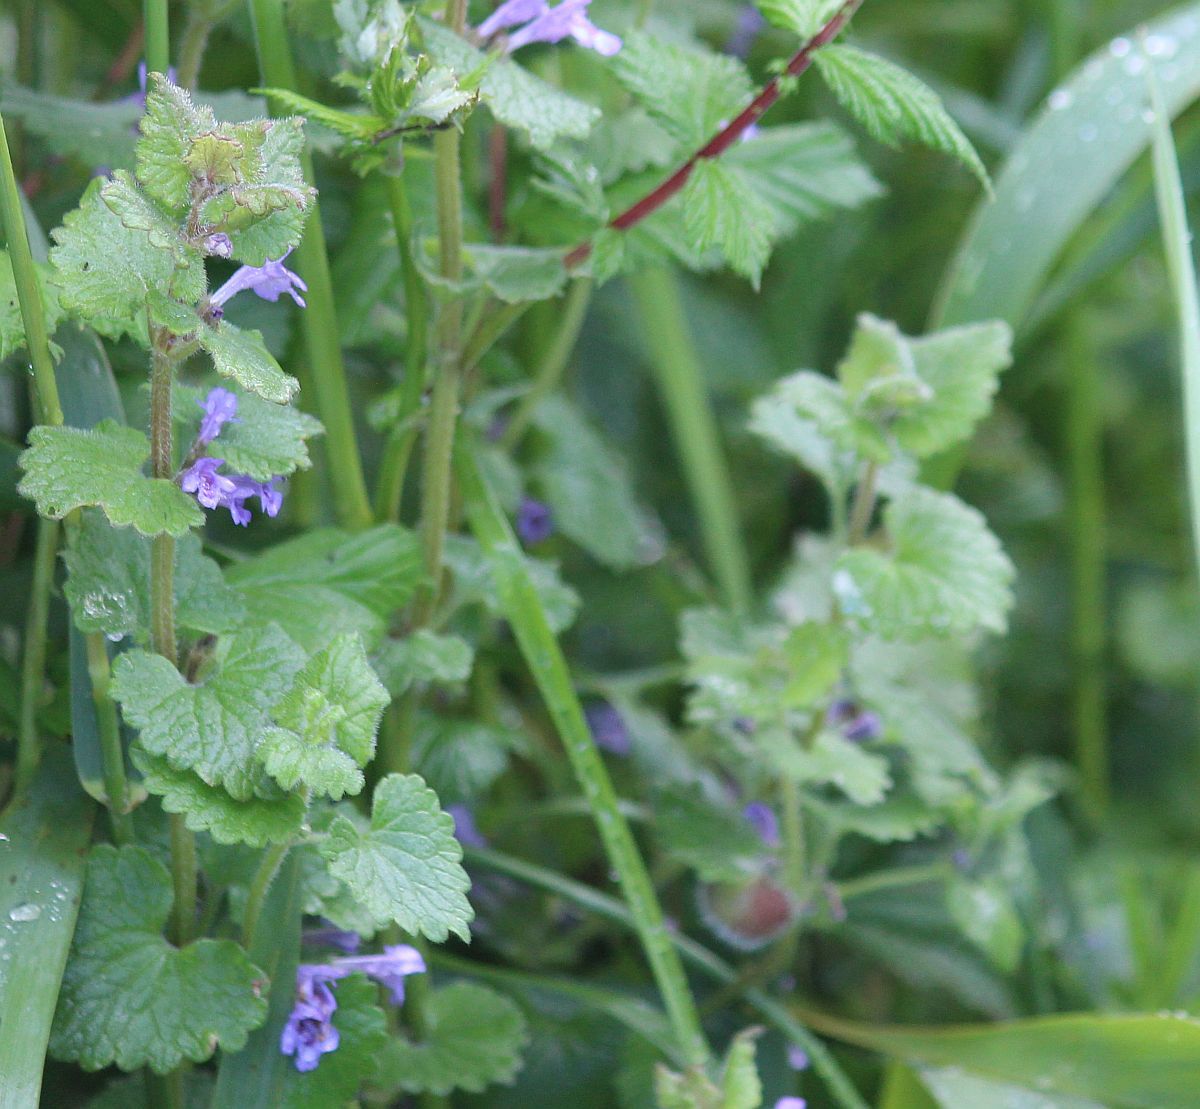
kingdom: Plantae
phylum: Tracheophyta
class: Magnoliopsida
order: Lamiales
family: Lamiaceae
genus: Glechoma
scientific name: Glechoma hederacea
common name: Ground ivy
